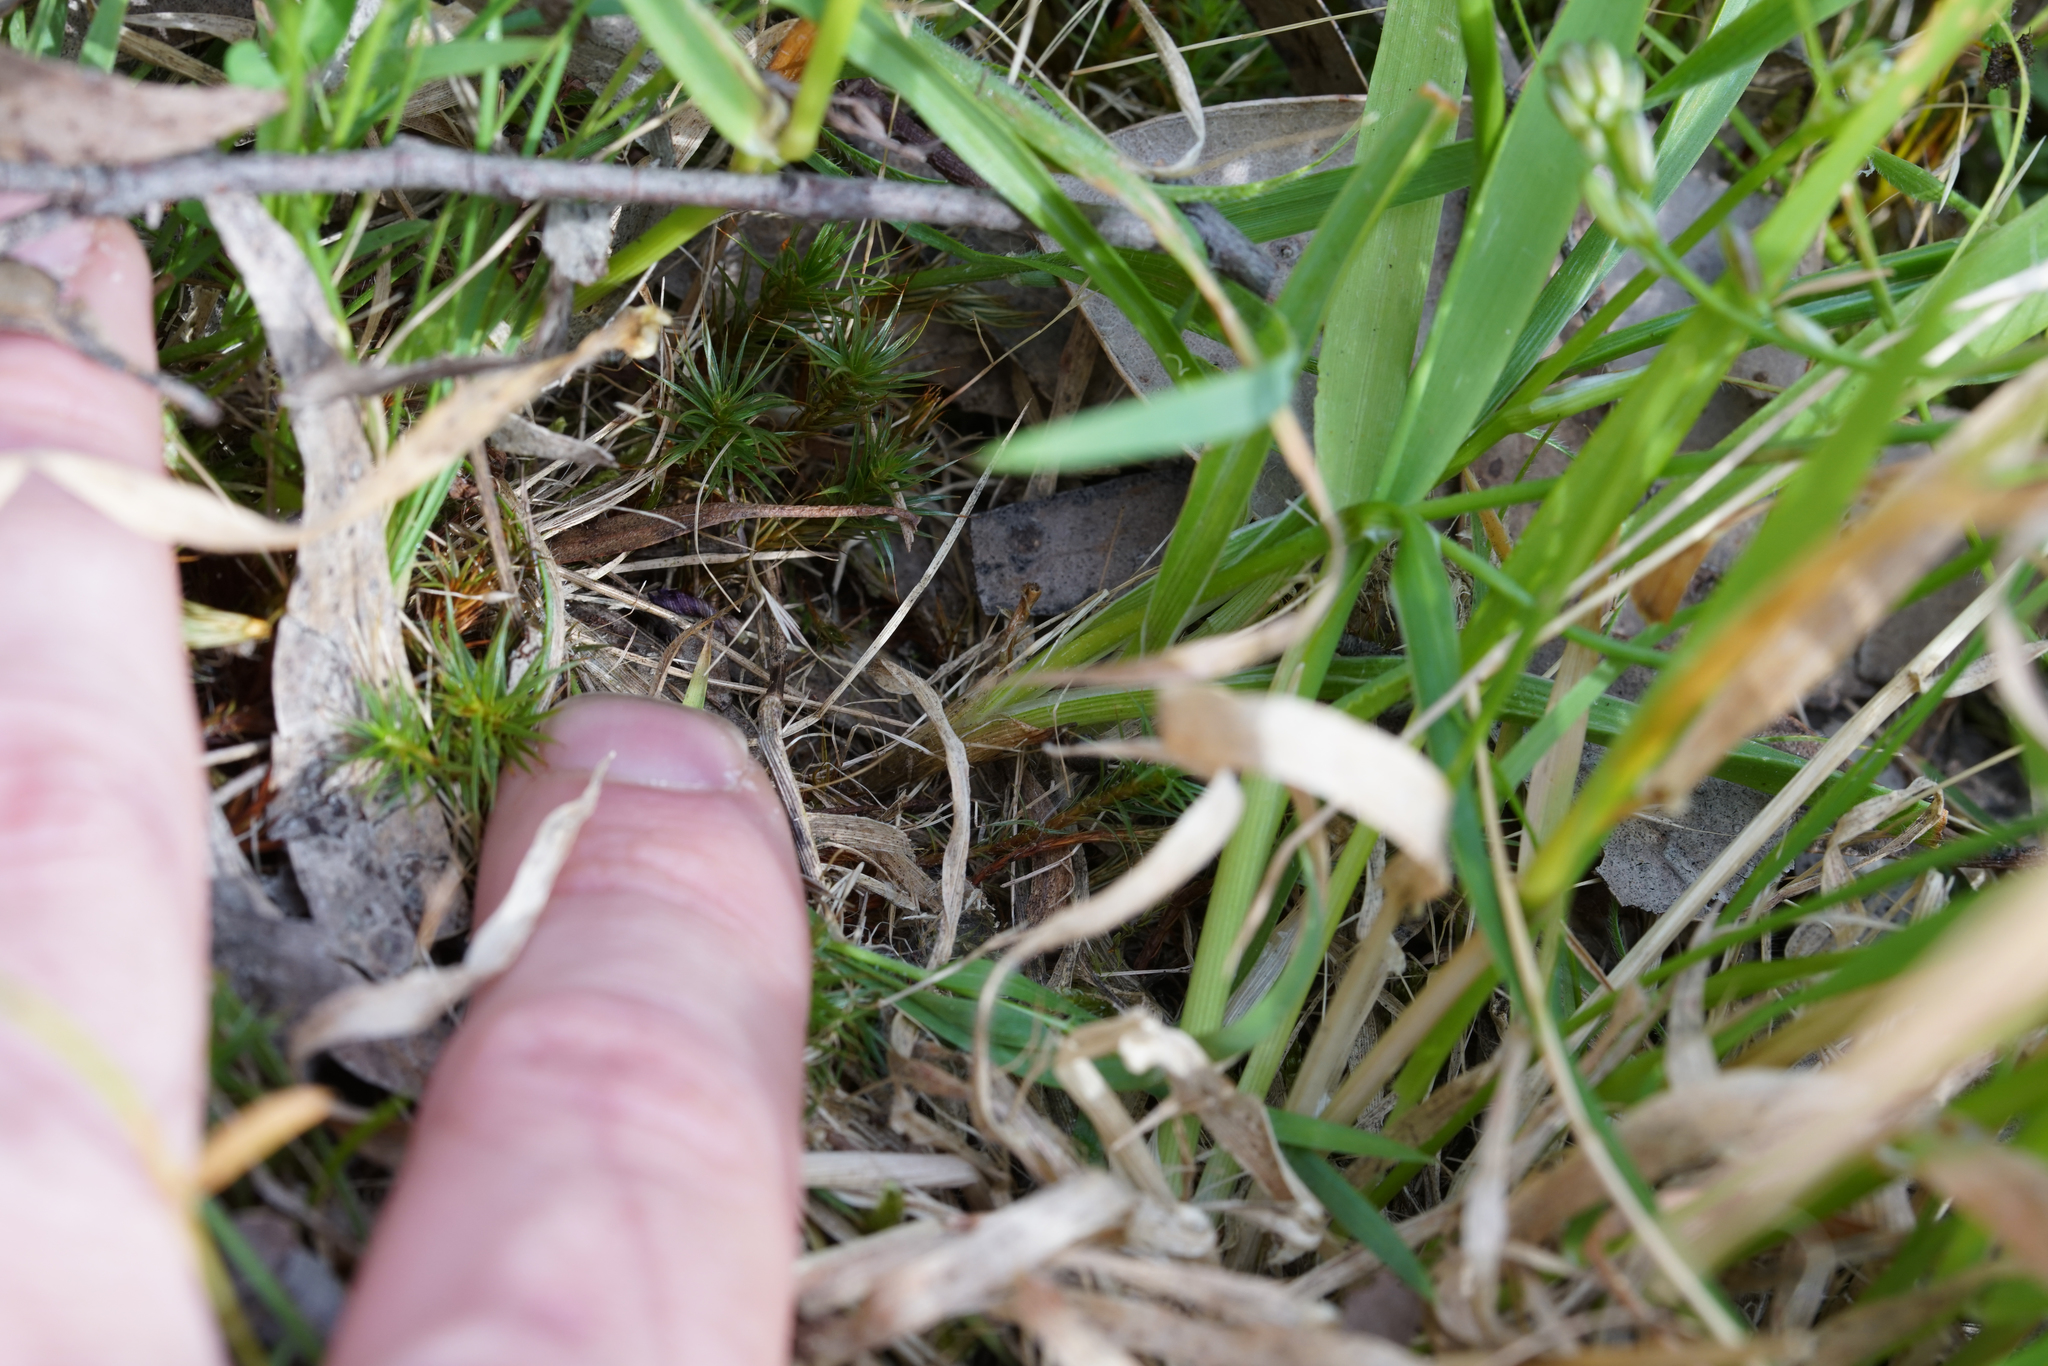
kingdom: Plantae
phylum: Tracheophyta
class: Liliopsida
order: Asparagales
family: Asphodelaceae
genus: Caesia
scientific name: Caesia calliantha
